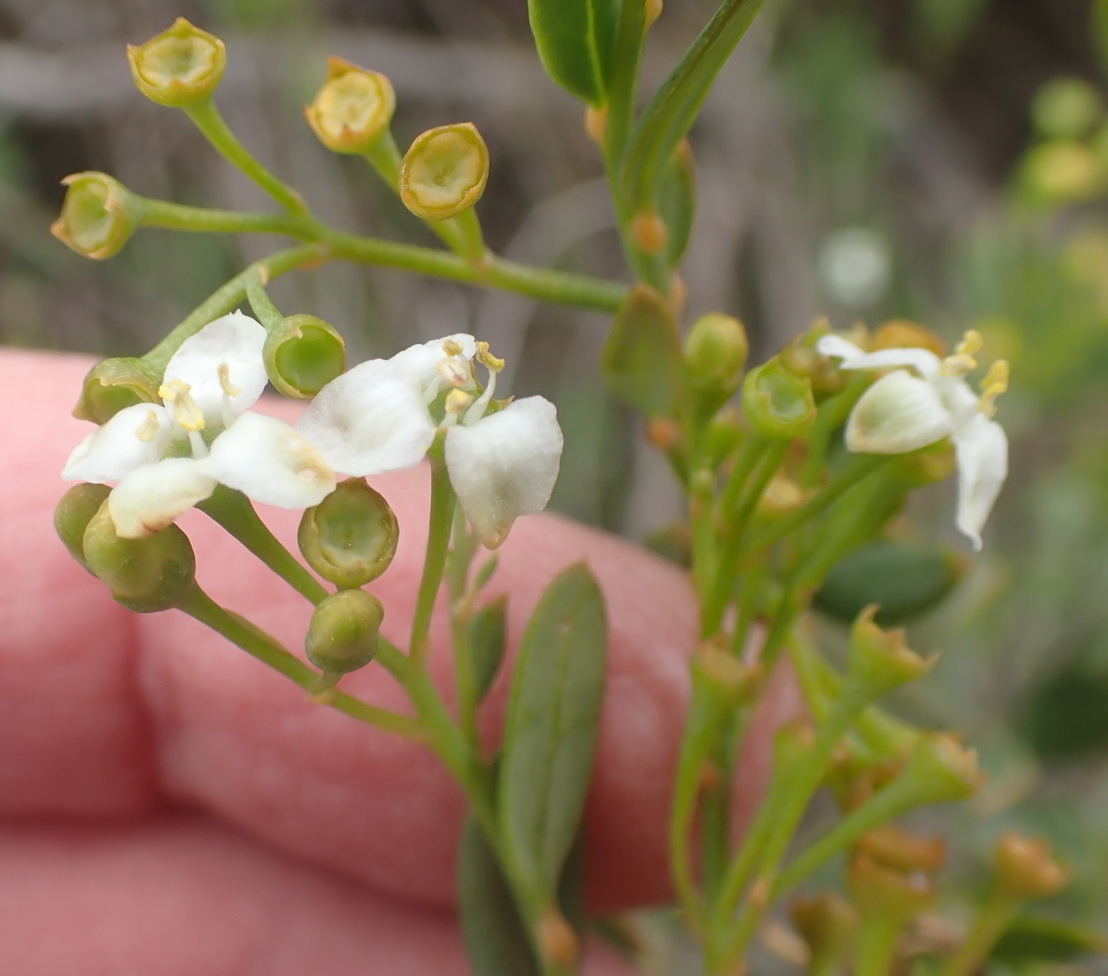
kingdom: Plantae
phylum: Tracheophyta
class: Magnoliopsida
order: Solanales
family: Montiniaceae
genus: Montinia
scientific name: Montinia caryophyllacea
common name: Wild clove-bush
